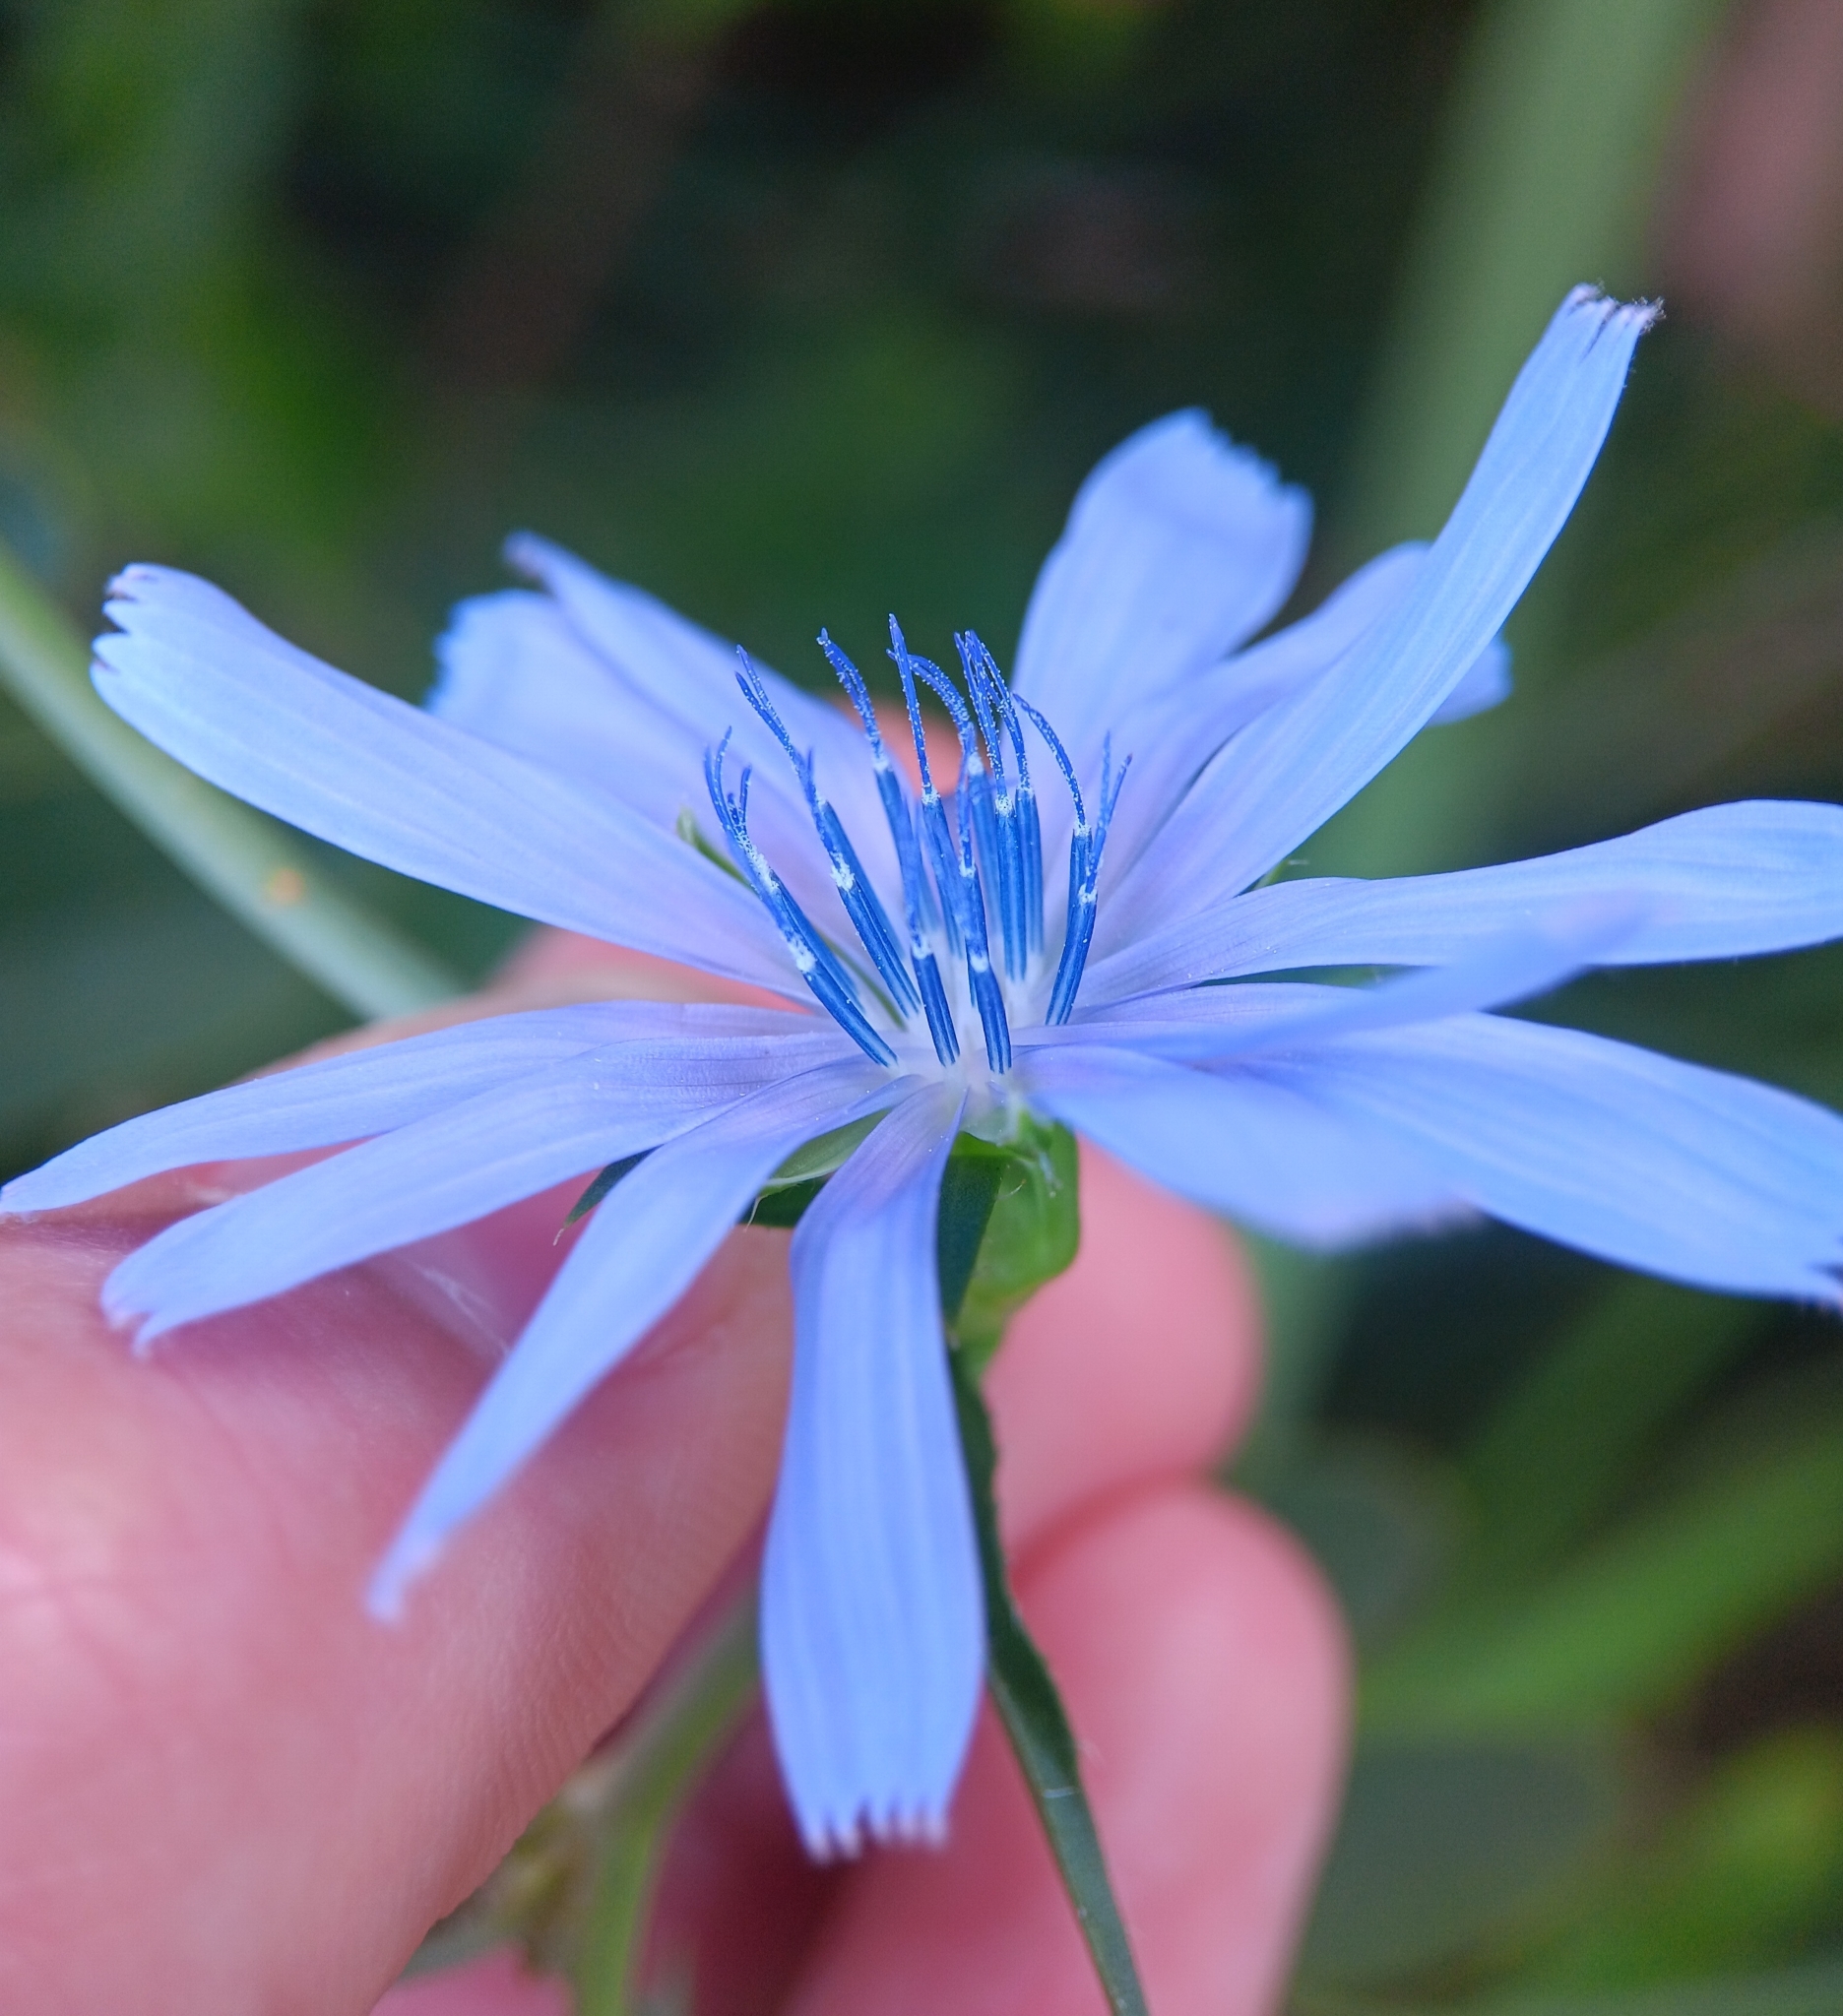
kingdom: Plantae
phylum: Tracheophyta
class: Magnoliopsida
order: Asterales
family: Asteraceae
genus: Cichorium
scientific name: Cichorium intybus
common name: Chicory
